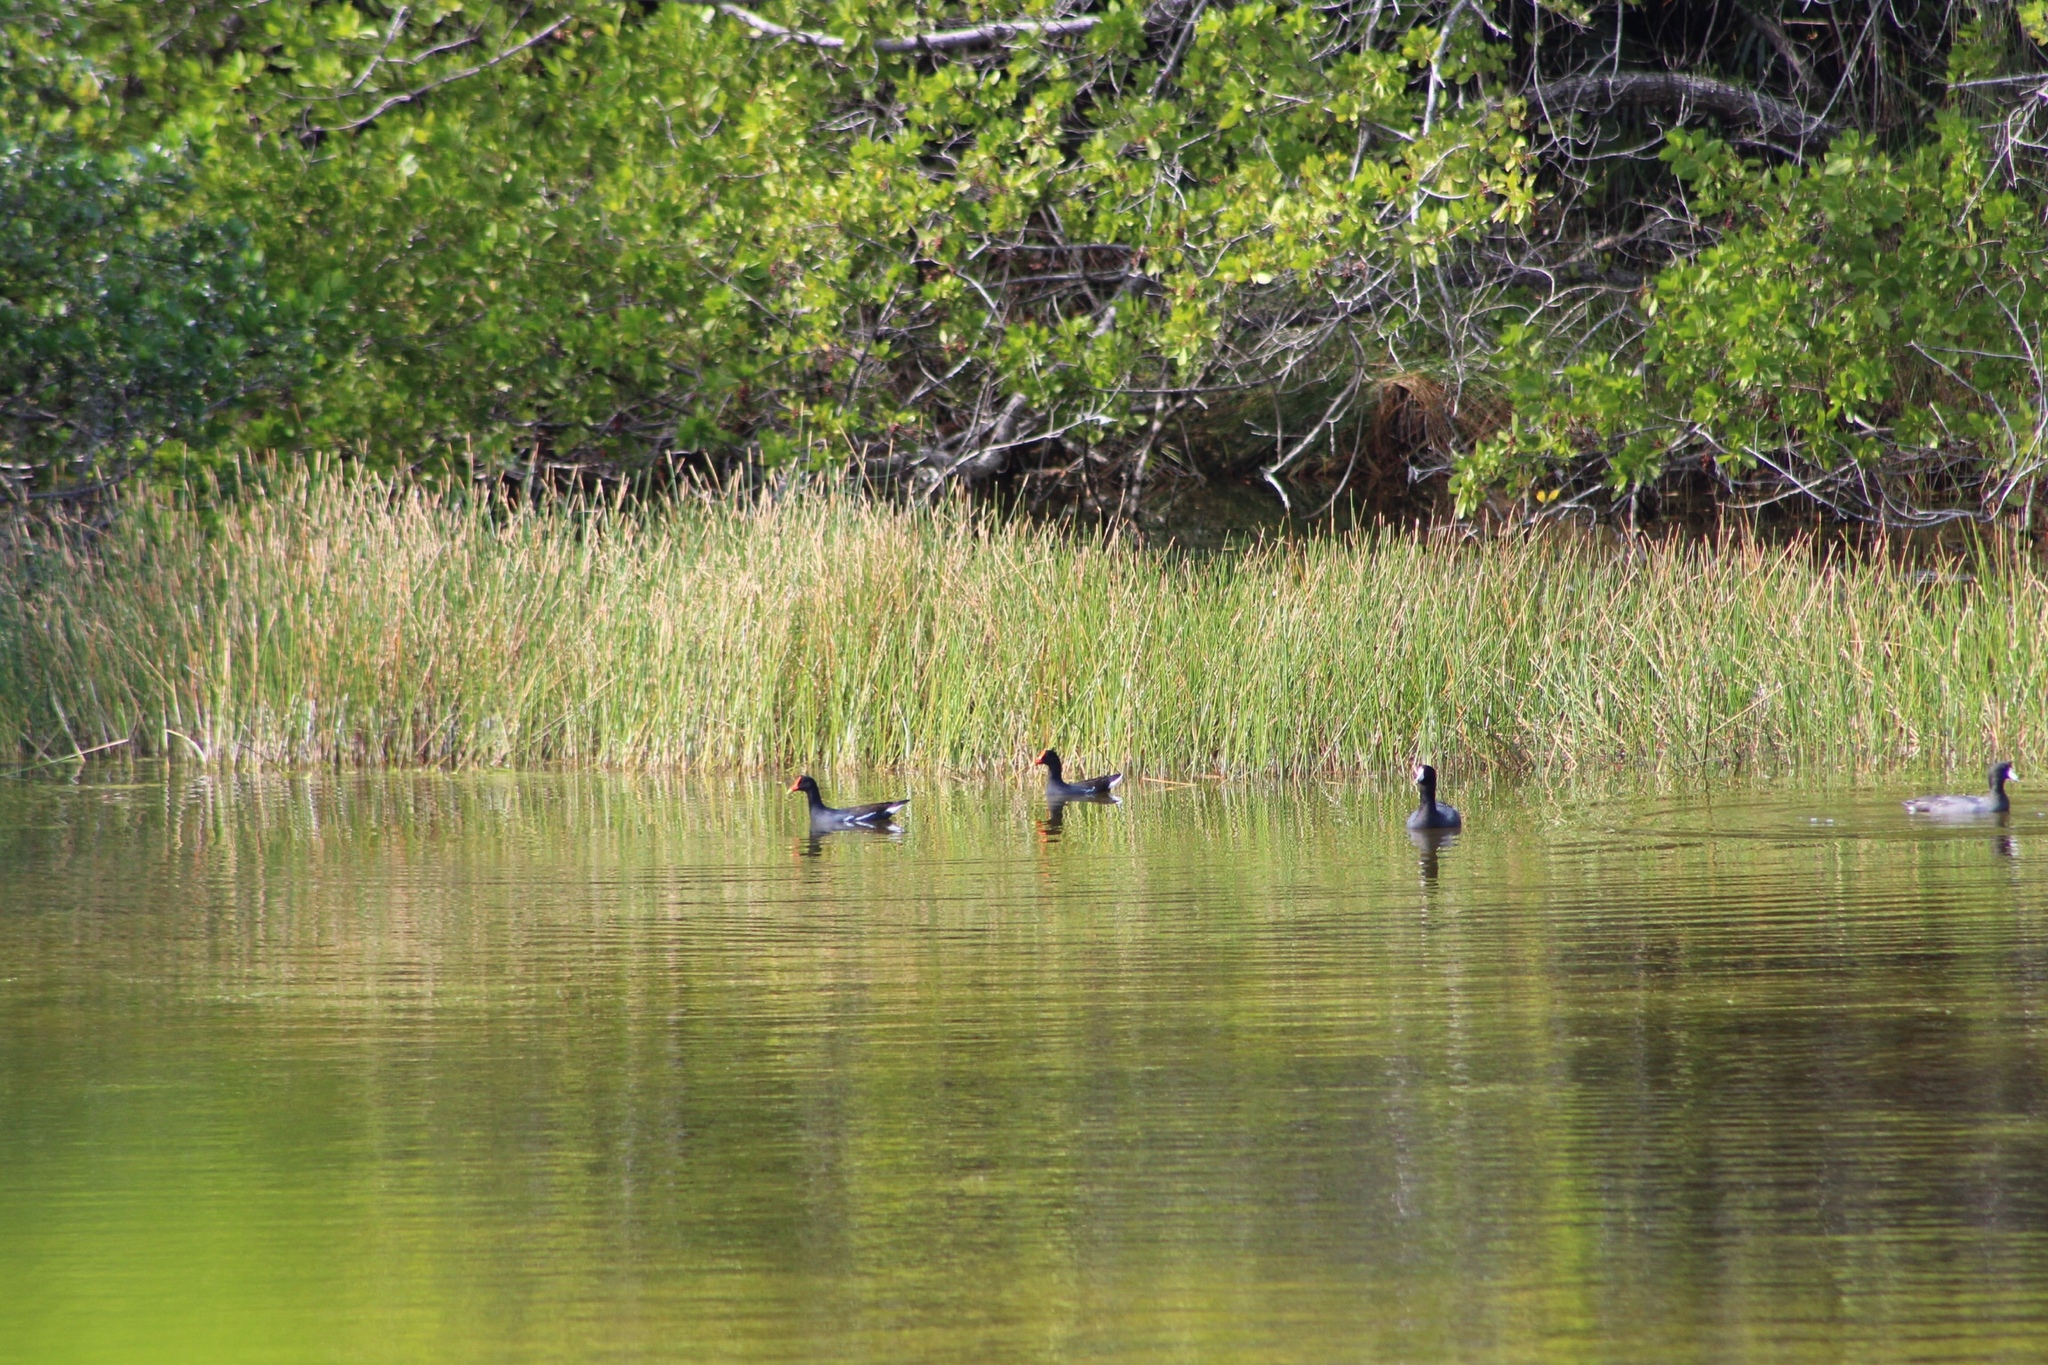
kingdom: Animalia
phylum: Chordata
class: Aves
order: Gruiformes
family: Rallidae
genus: Fulica
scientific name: Fulica americana
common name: American coot
